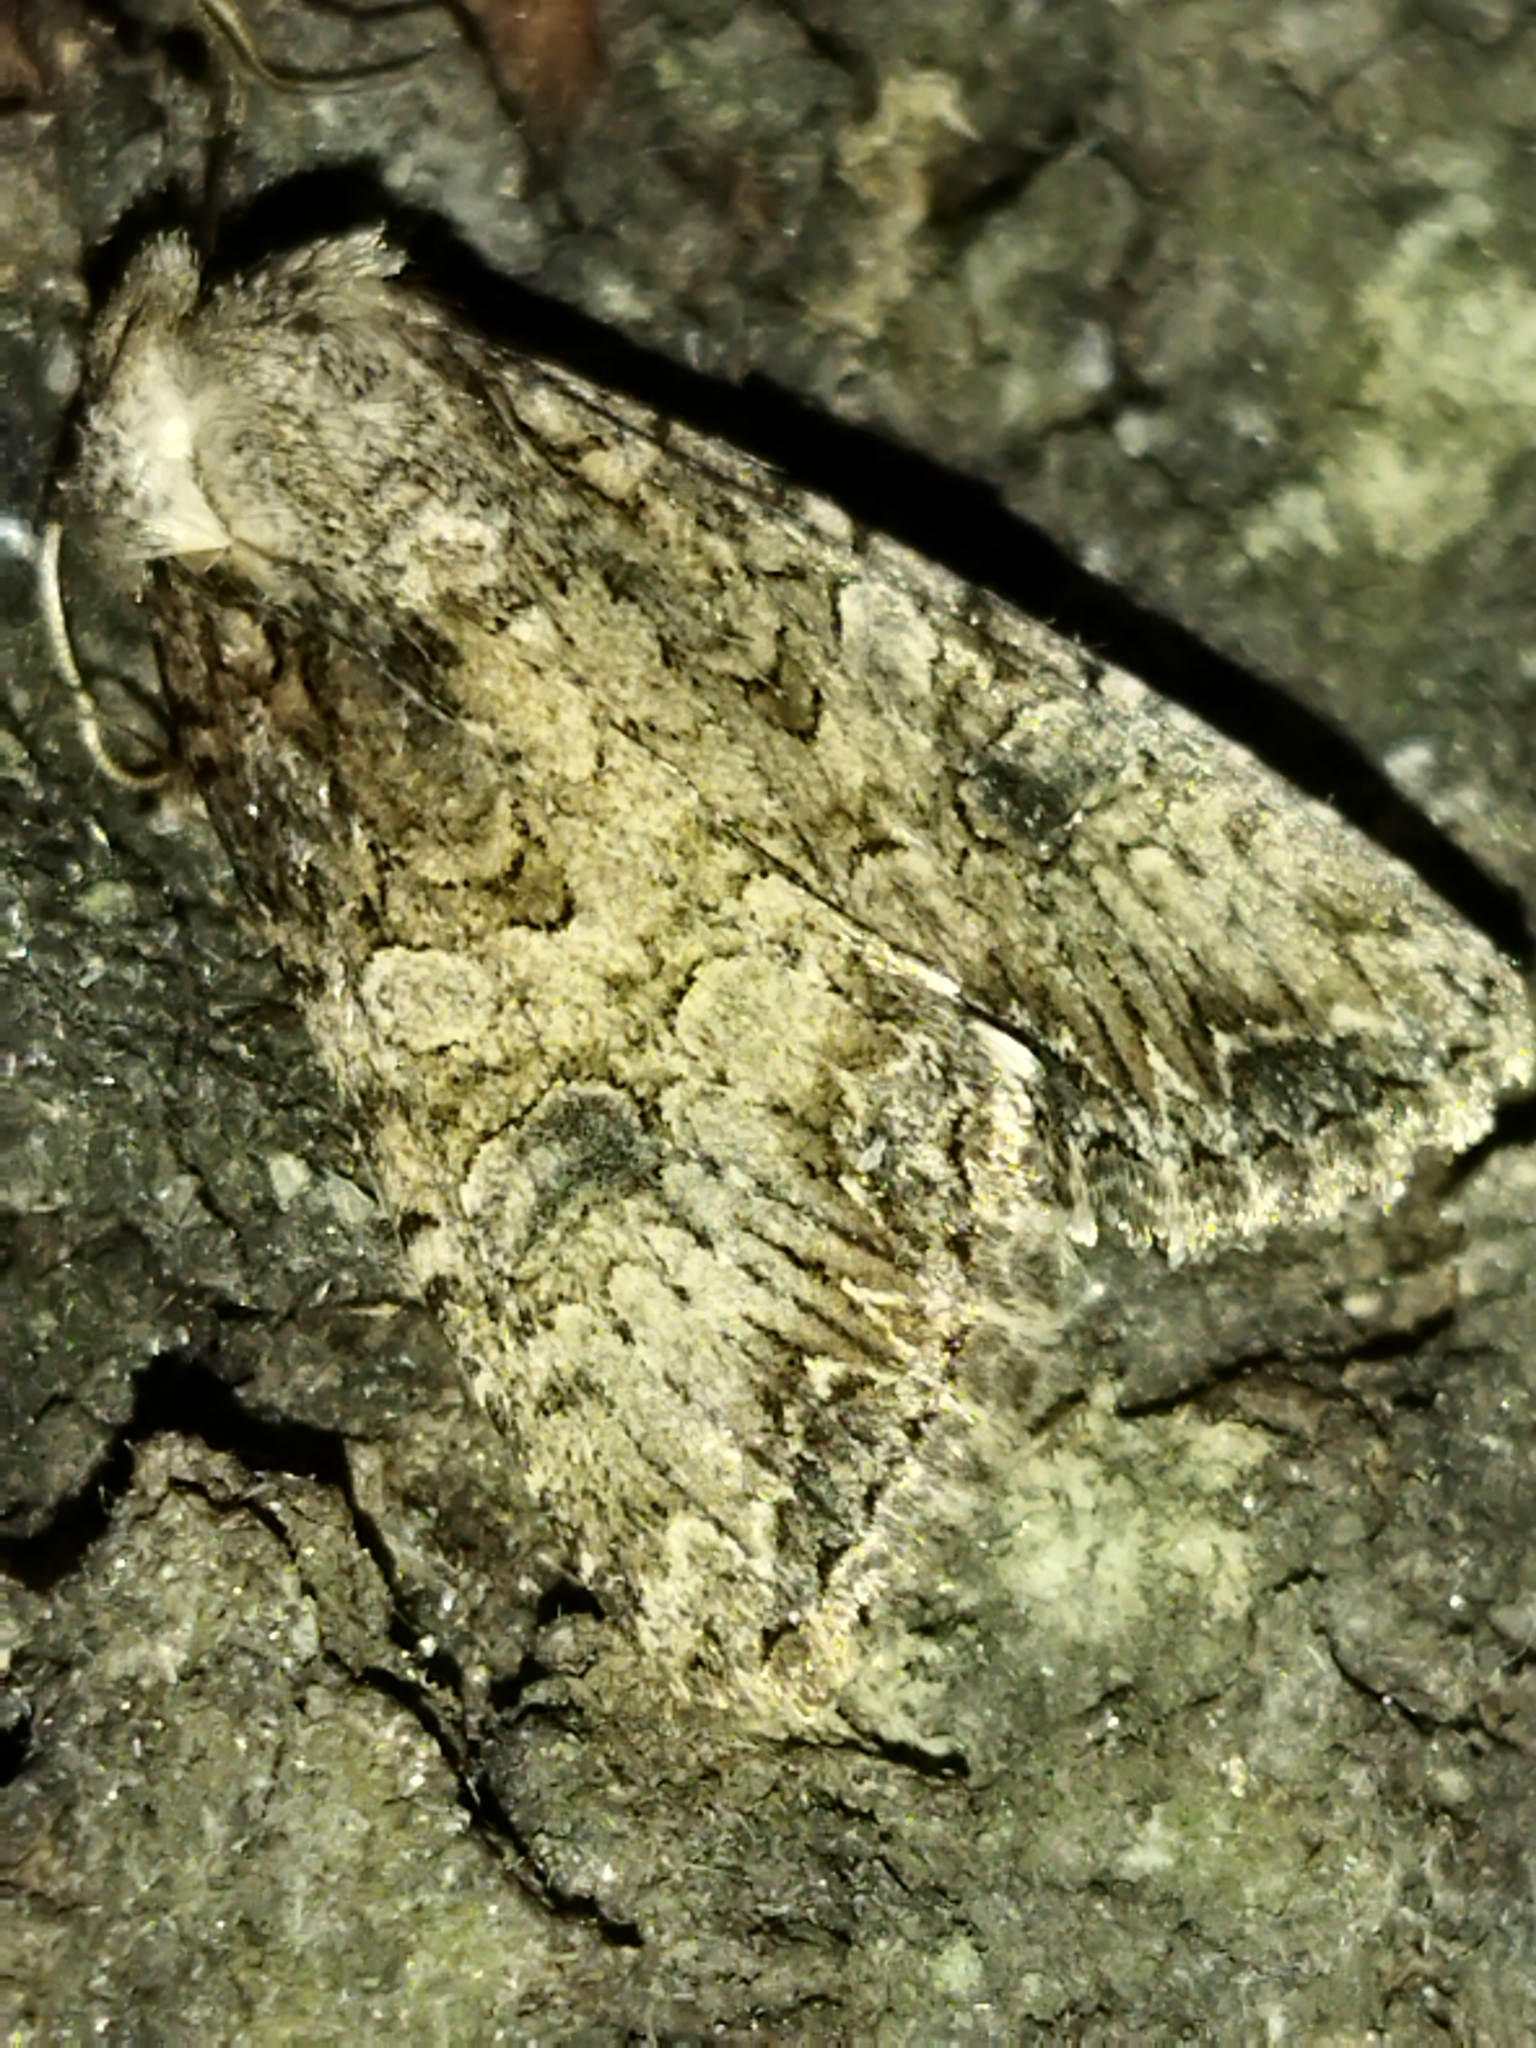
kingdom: Animalia
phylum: Arthropoda
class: Insecta
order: Lepidoptera
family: Noctuidae
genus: Anarta
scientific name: Anarta trifolii
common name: Clover cutworm moth
